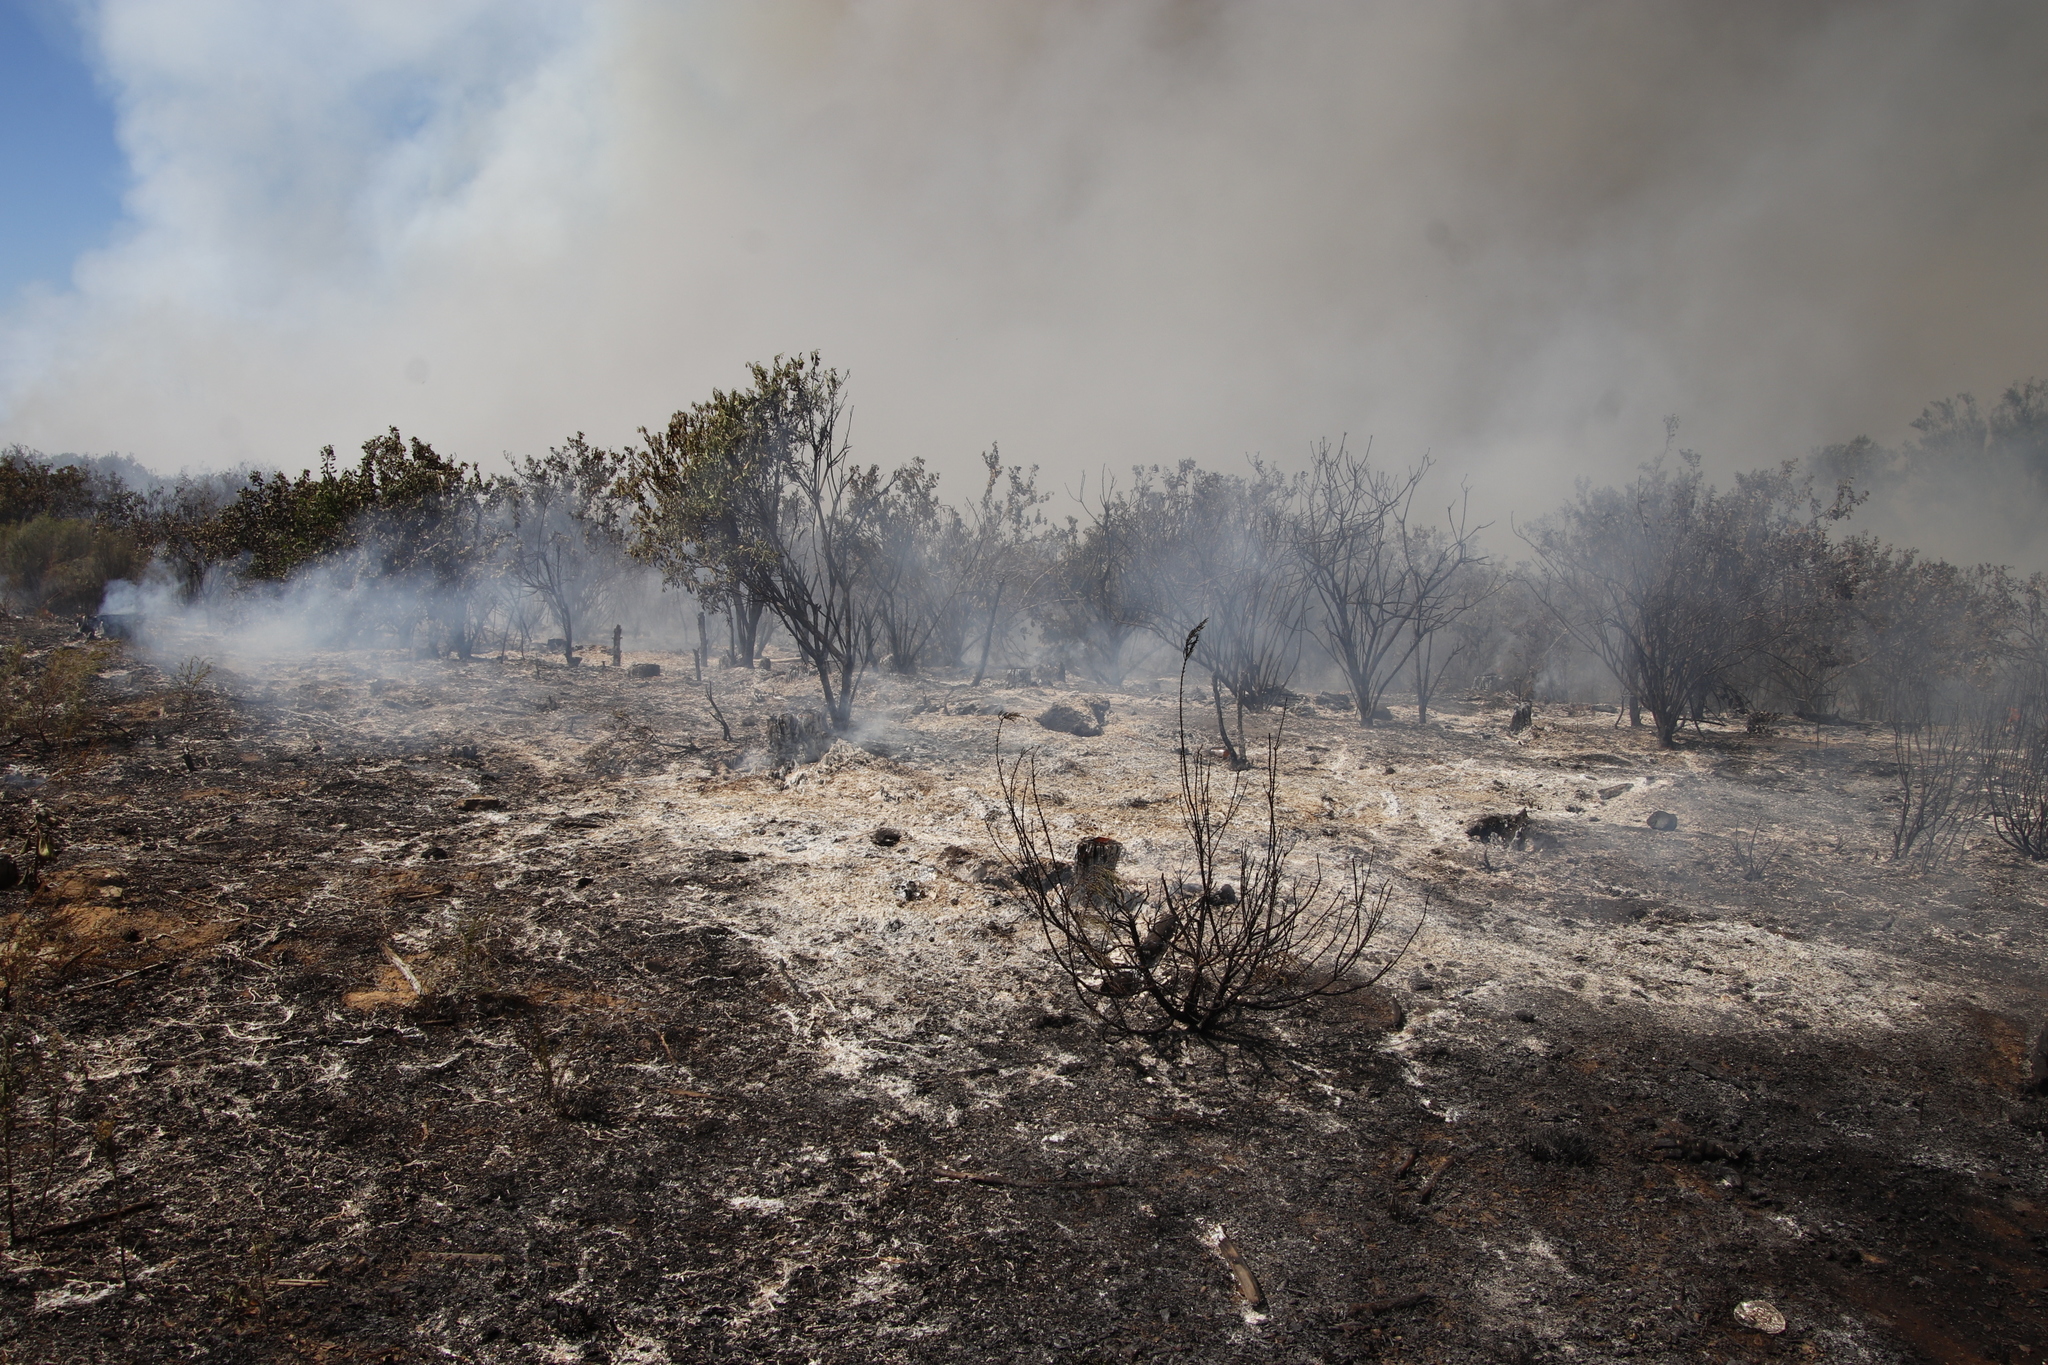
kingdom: Plantae
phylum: Tracheophyta
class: Magnoliopsida
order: Asterales
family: Asteraceae
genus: Osteospermum
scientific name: Osteospermum moniliferum
